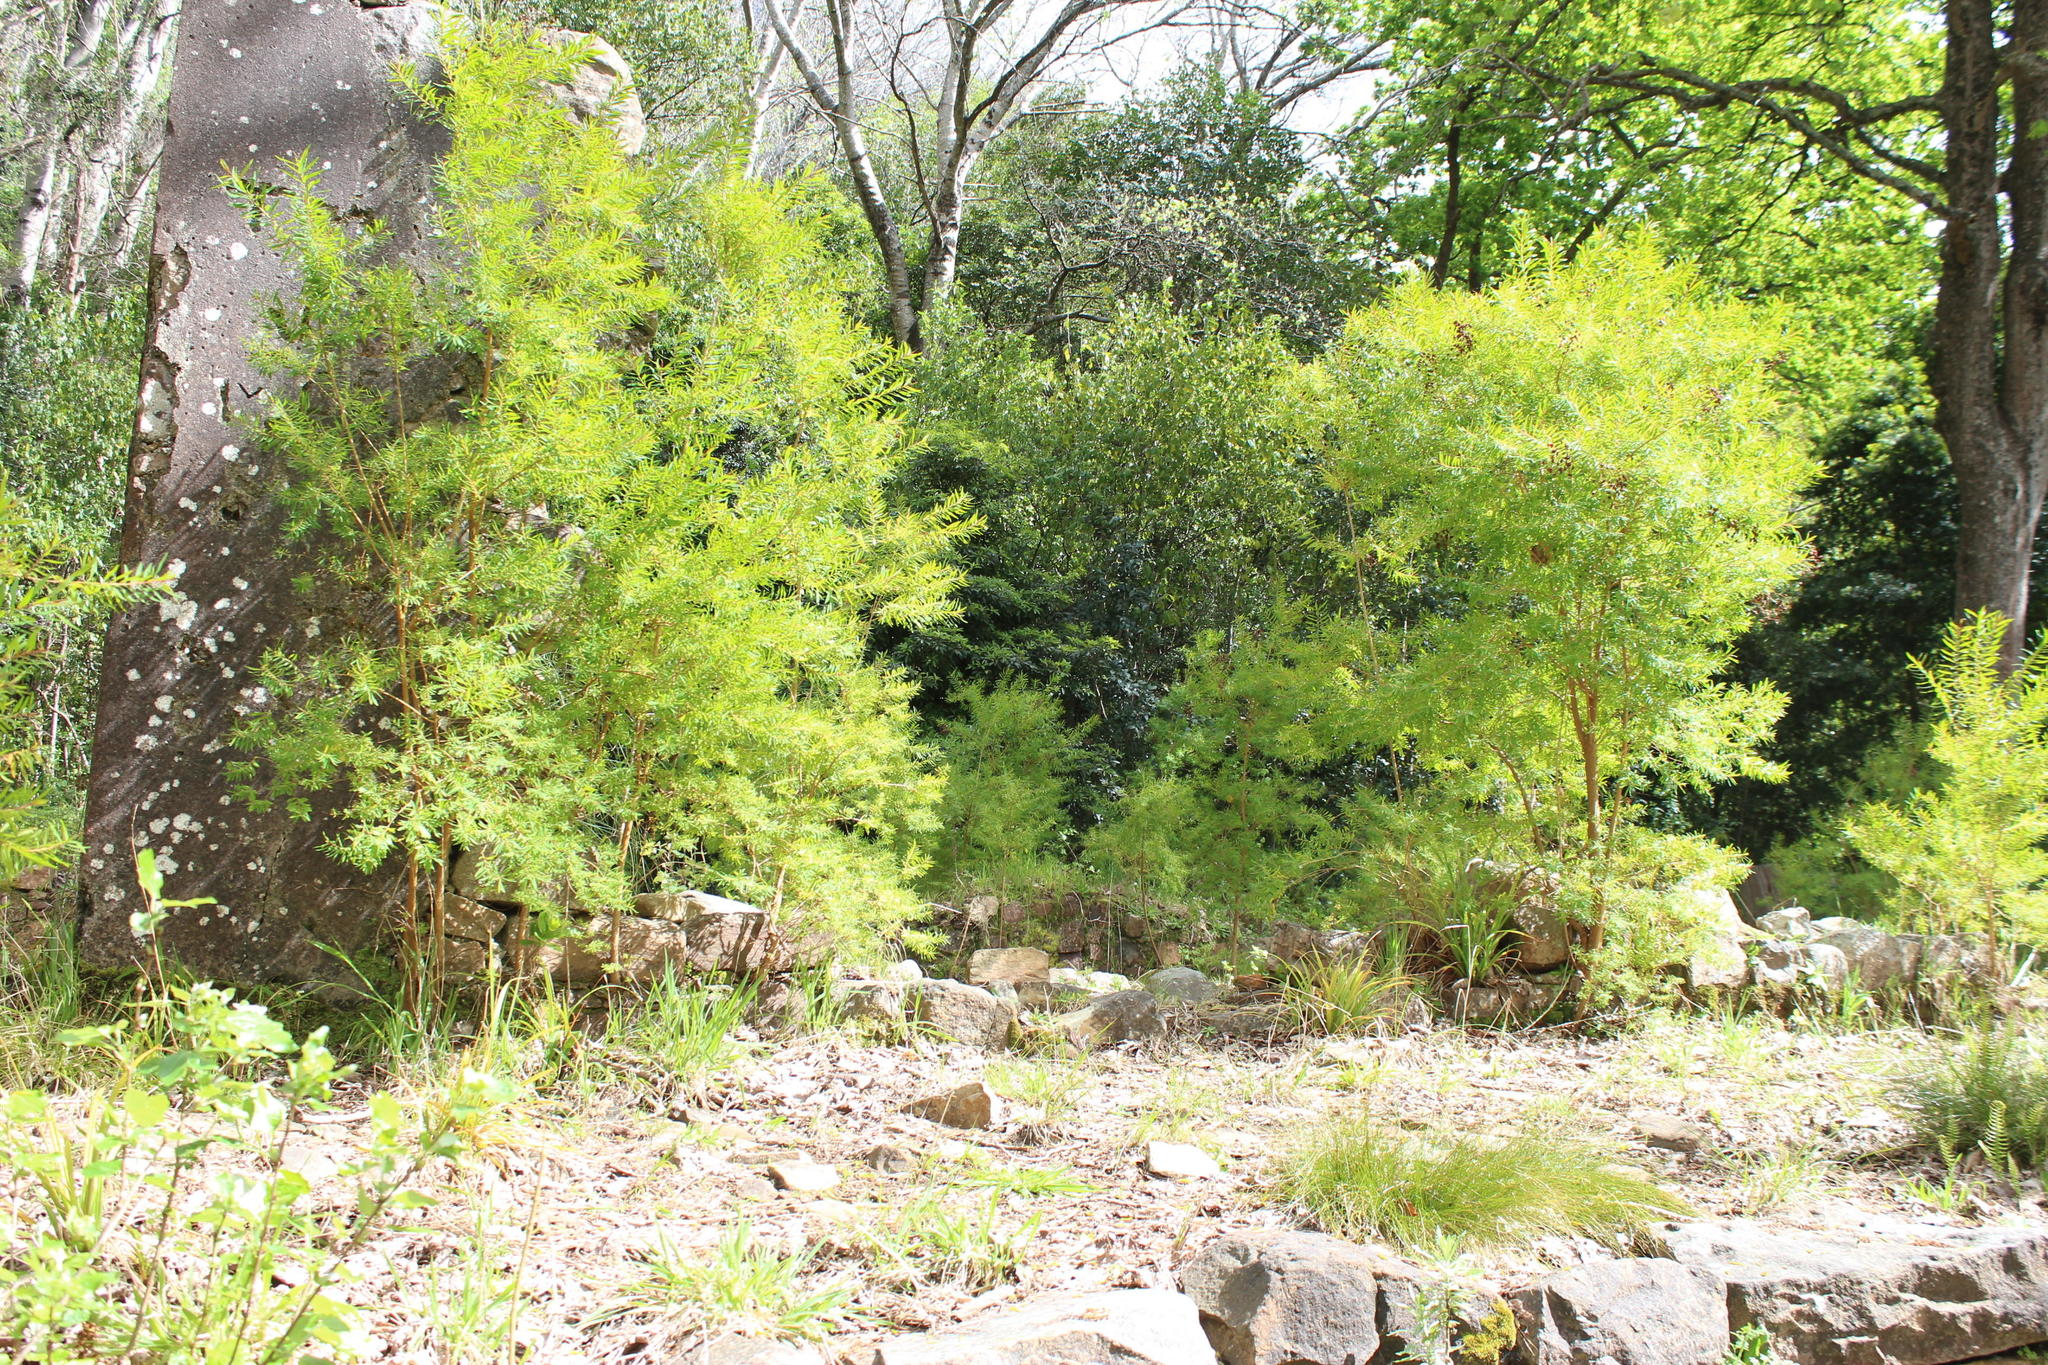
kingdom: Plantae
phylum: Tracheophyta
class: Magnoliopsida
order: Malpighiales
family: Hypericaceae
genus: Hypericum
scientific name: Hypericum canariense
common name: Canary island st. johnswort
